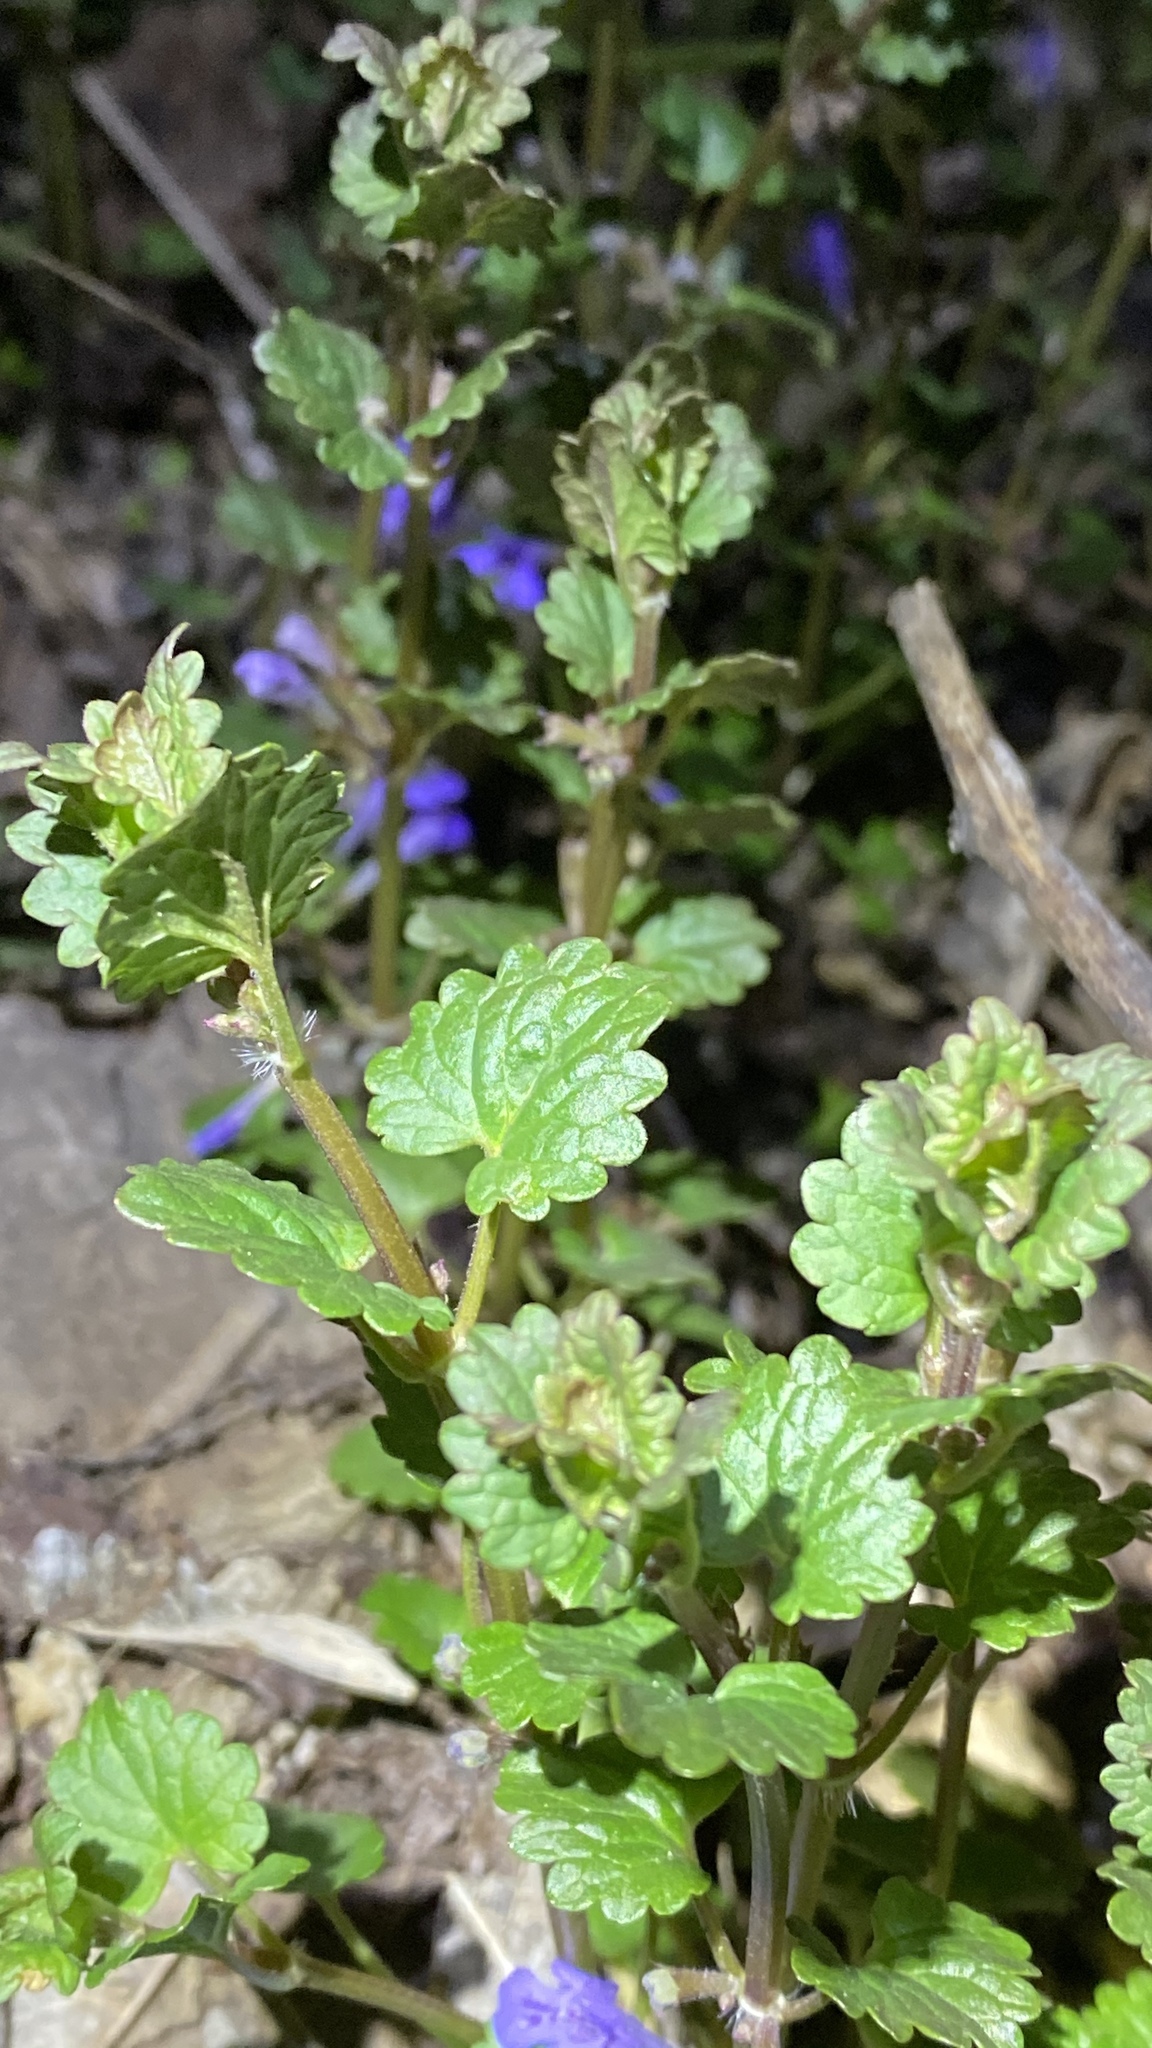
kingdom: Plantae
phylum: Tracheophyta
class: Magnoliopsida
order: Lamiales
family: Lamiaceae
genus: Glechoma
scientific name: Glechoma hederacea
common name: Ground ivy
